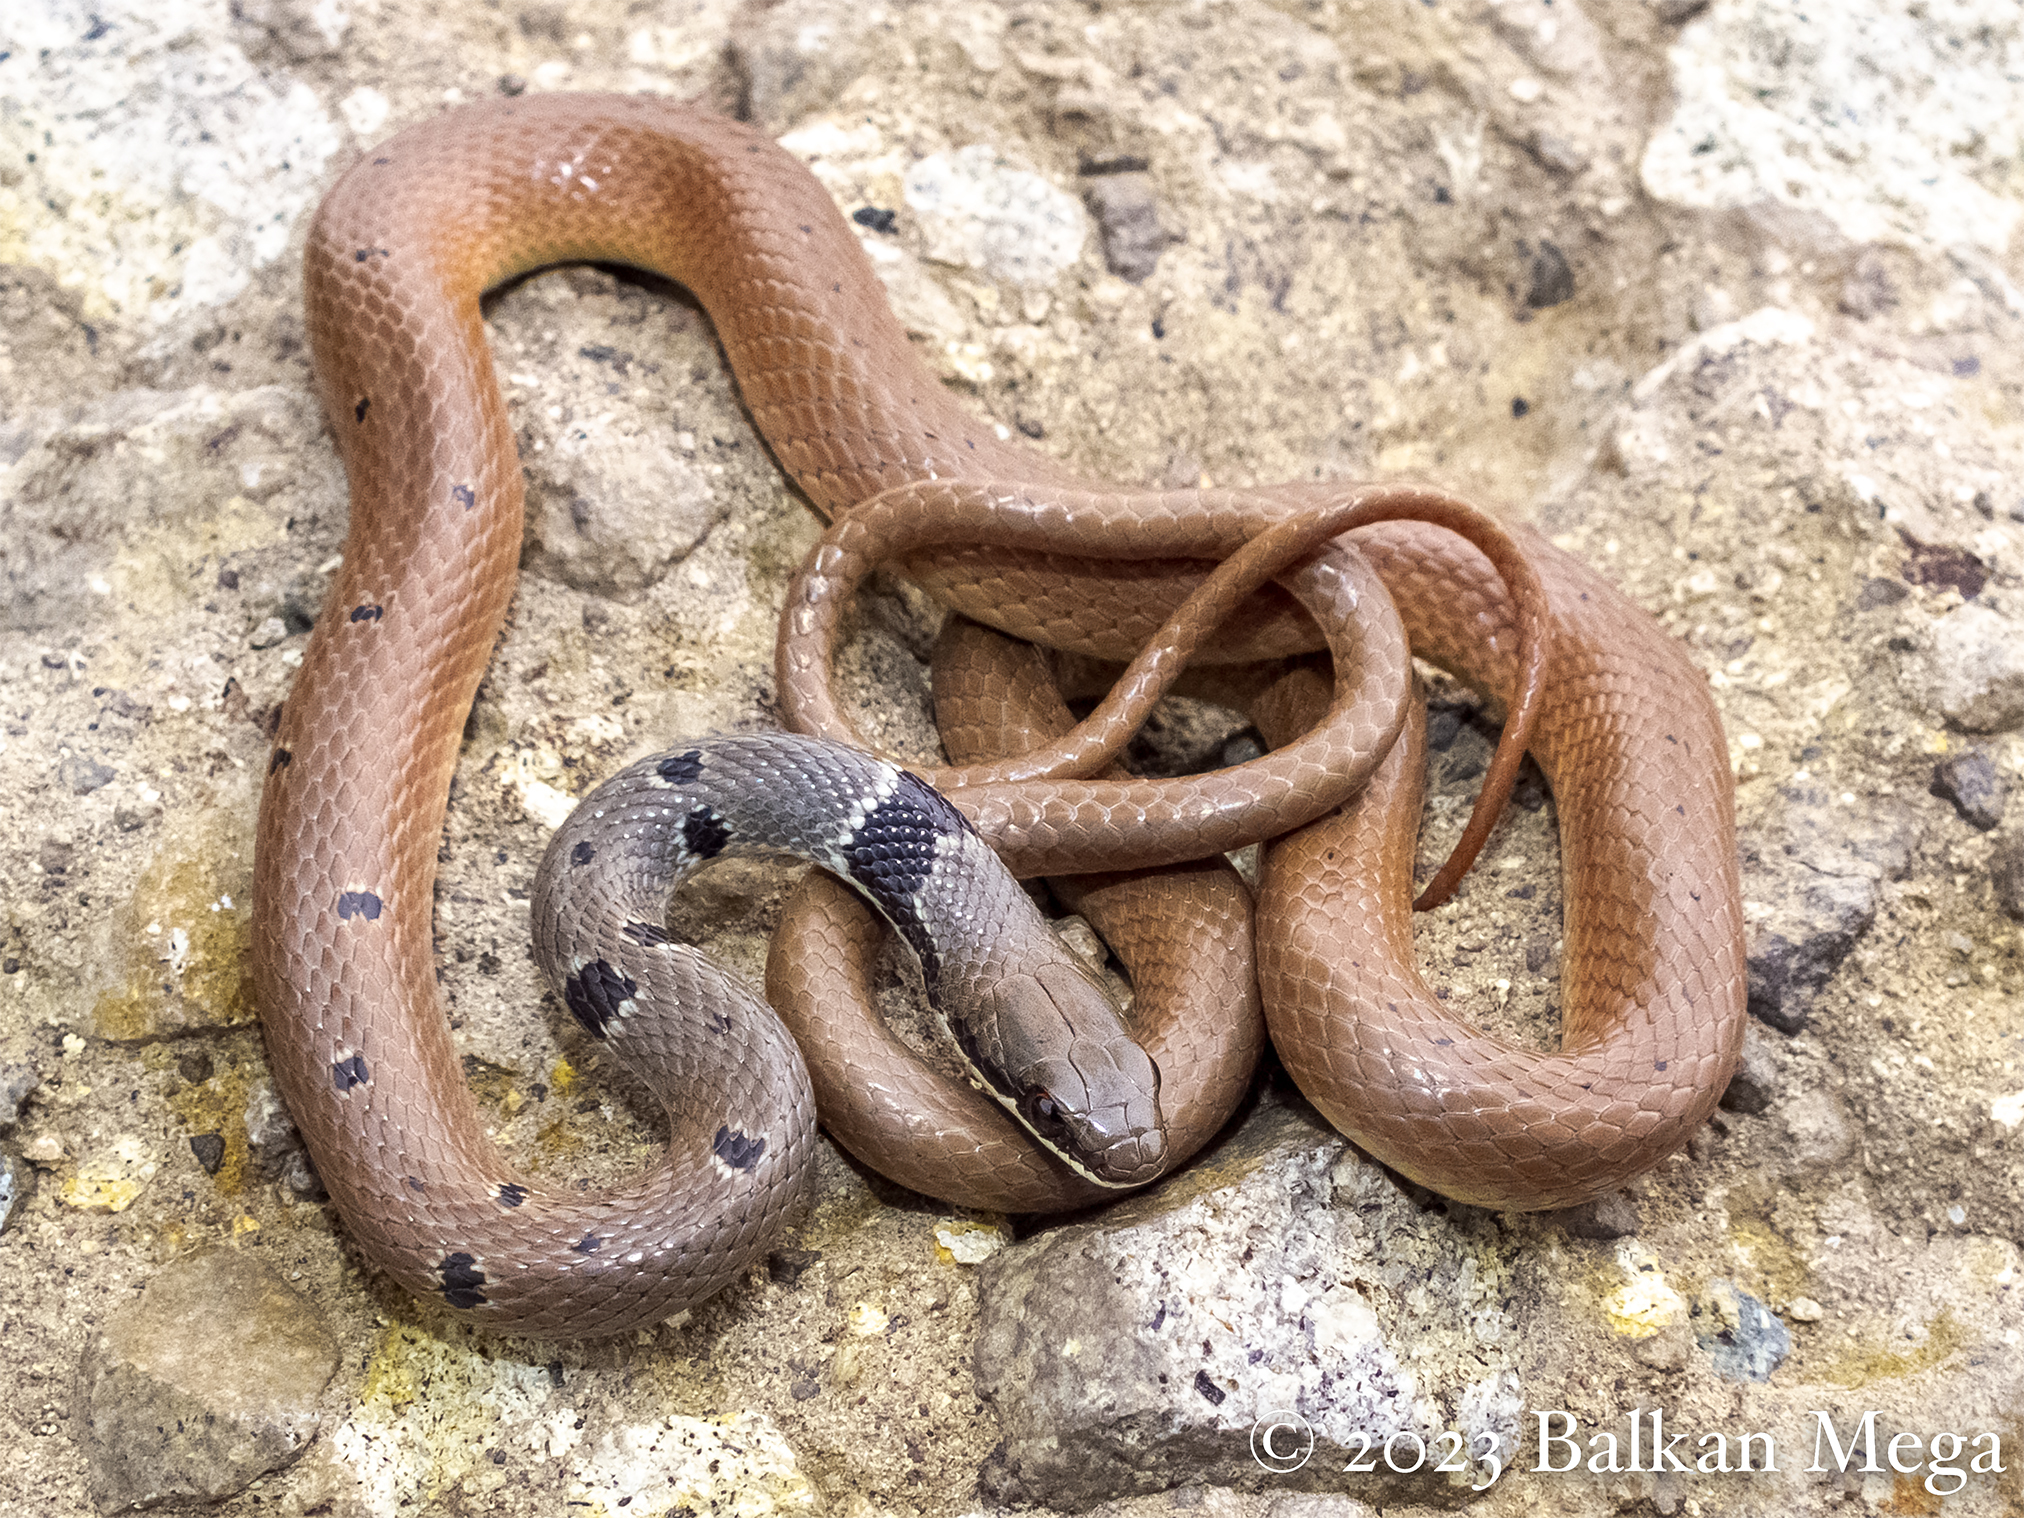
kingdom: Animalia
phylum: Chordata
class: Squamata
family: Colubridae
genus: Platyceps
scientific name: Platyceps collaris
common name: Collared dwarf racer
